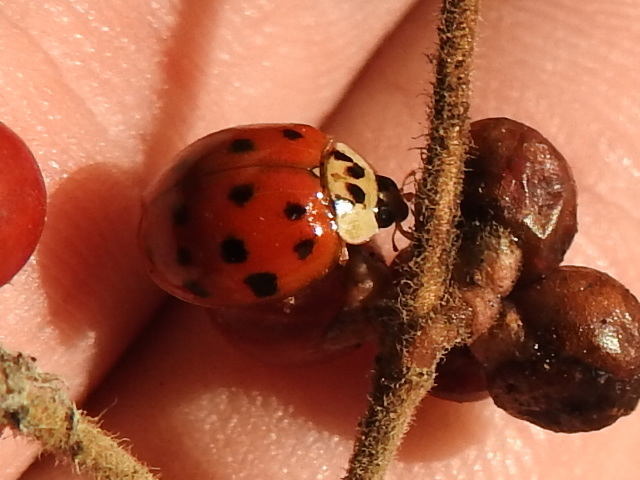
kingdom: Animalia
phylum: Arthropoda
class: Insecta
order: Coleoptera
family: Coccinellidae
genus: Harmonia
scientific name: Harmonia axyridis
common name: Harlequin ladybird
